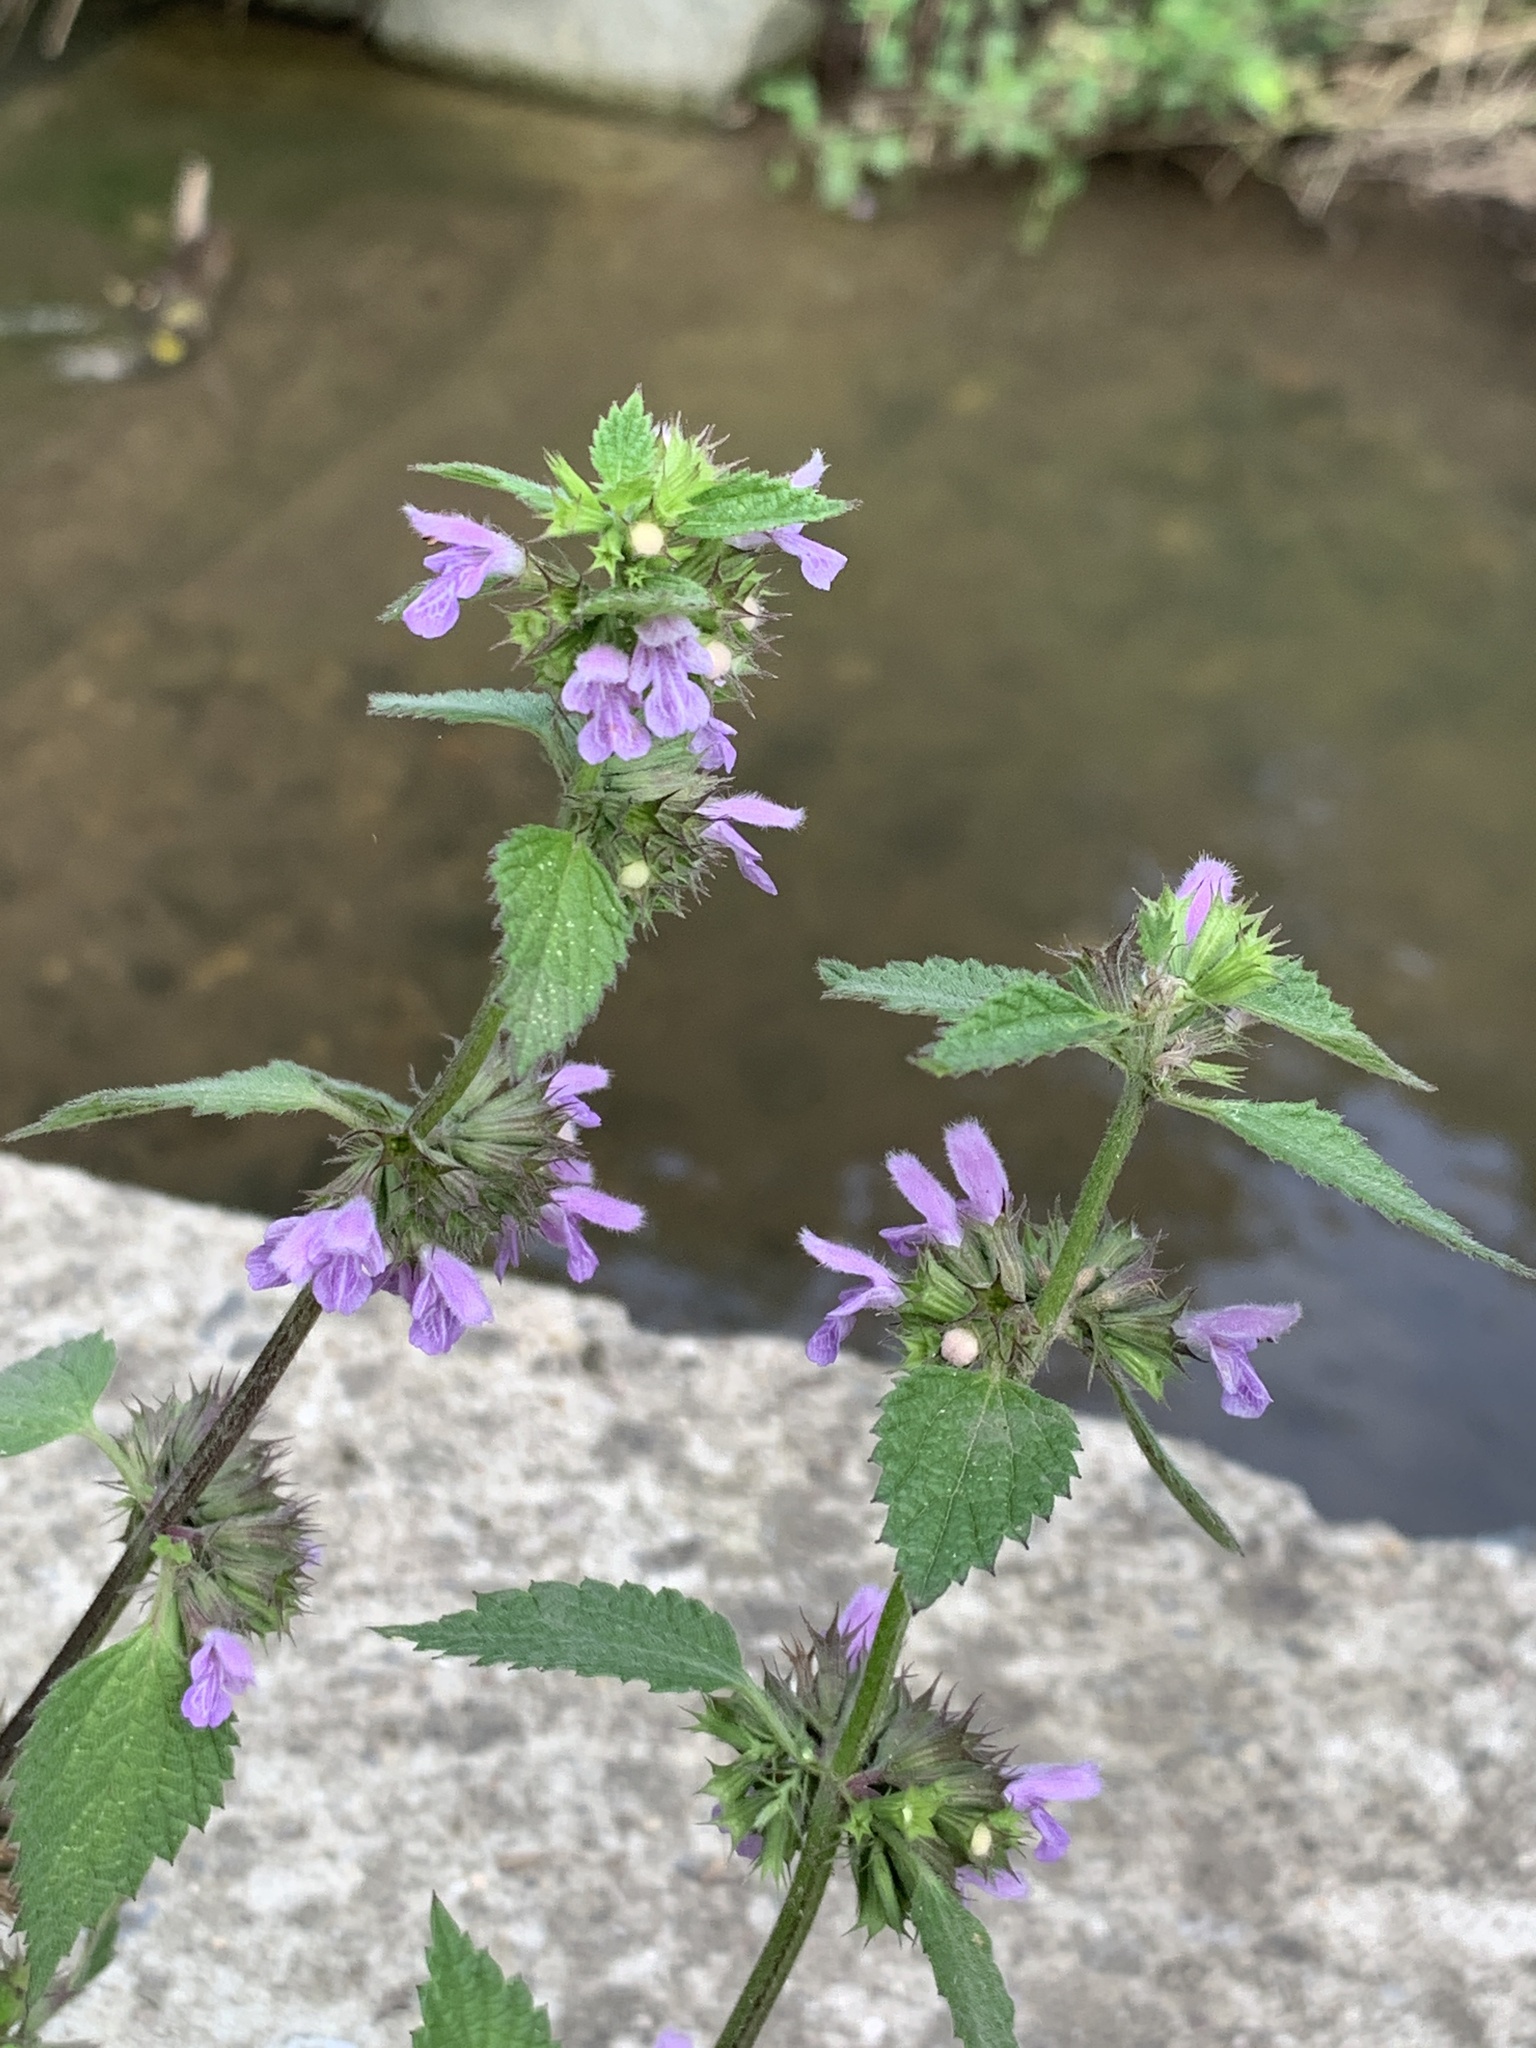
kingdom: Plantae
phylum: Tracheophyta
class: Magnoliopsida
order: Lamiales
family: Lamiaceae
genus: Ballota
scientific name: Ballota nigra
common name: Black horehound
